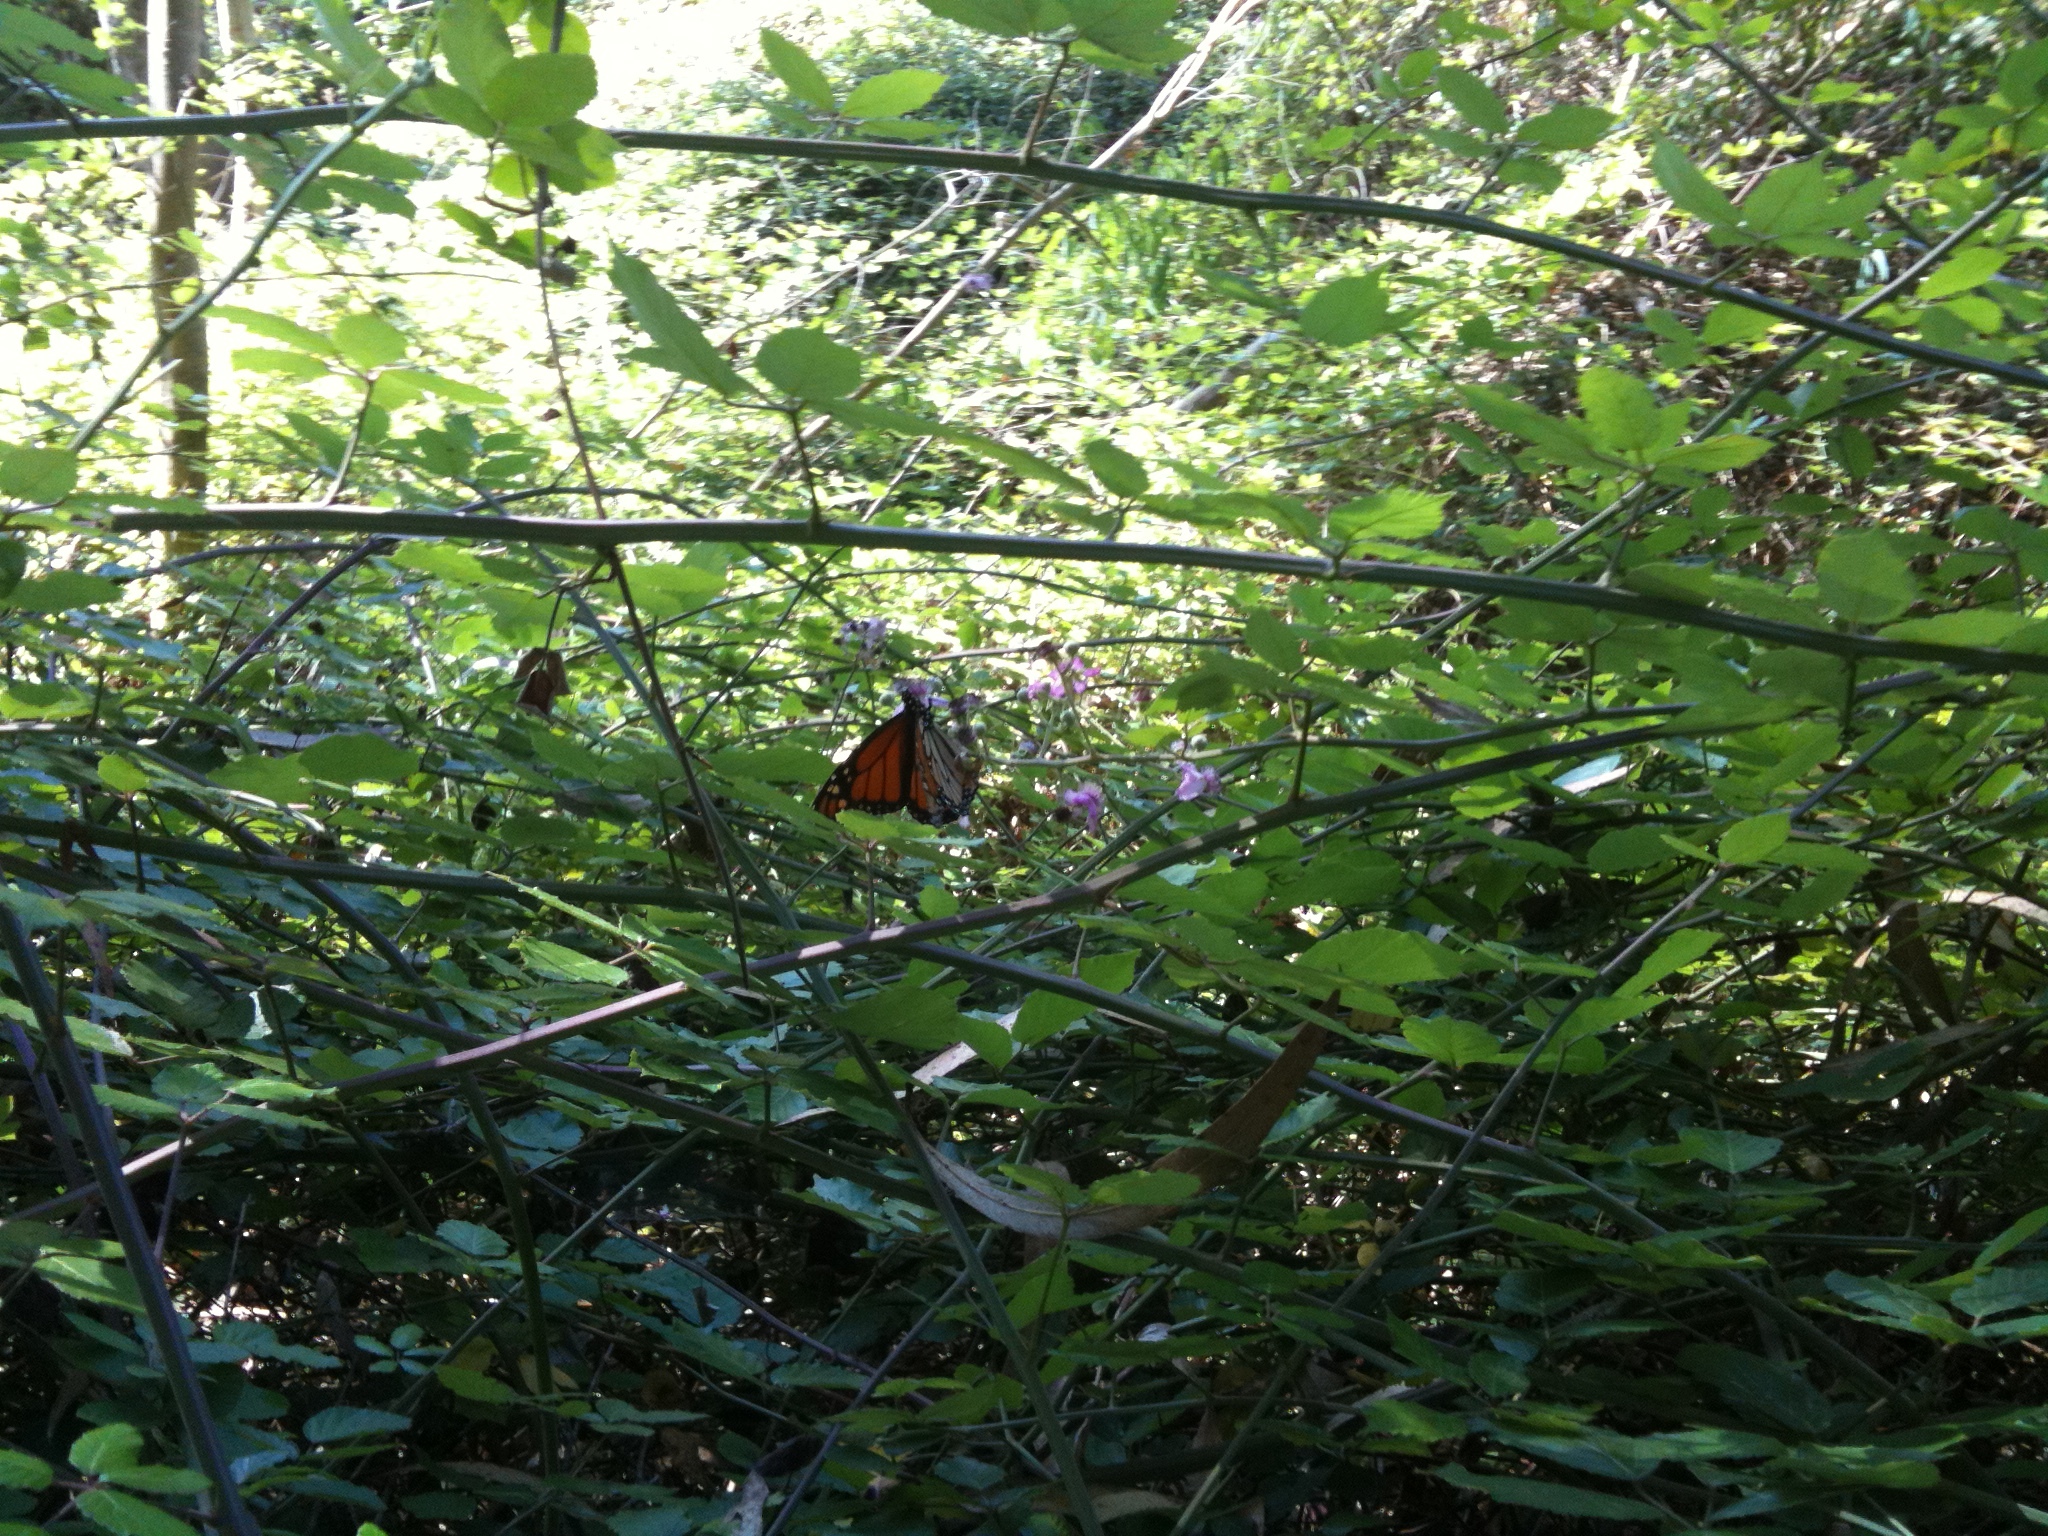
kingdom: Animalia
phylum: Arthropoda
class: Insecta
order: Lepidoptera
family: Nymphalidae
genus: Danaus
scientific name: Danaus plexippus
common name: Monarch
